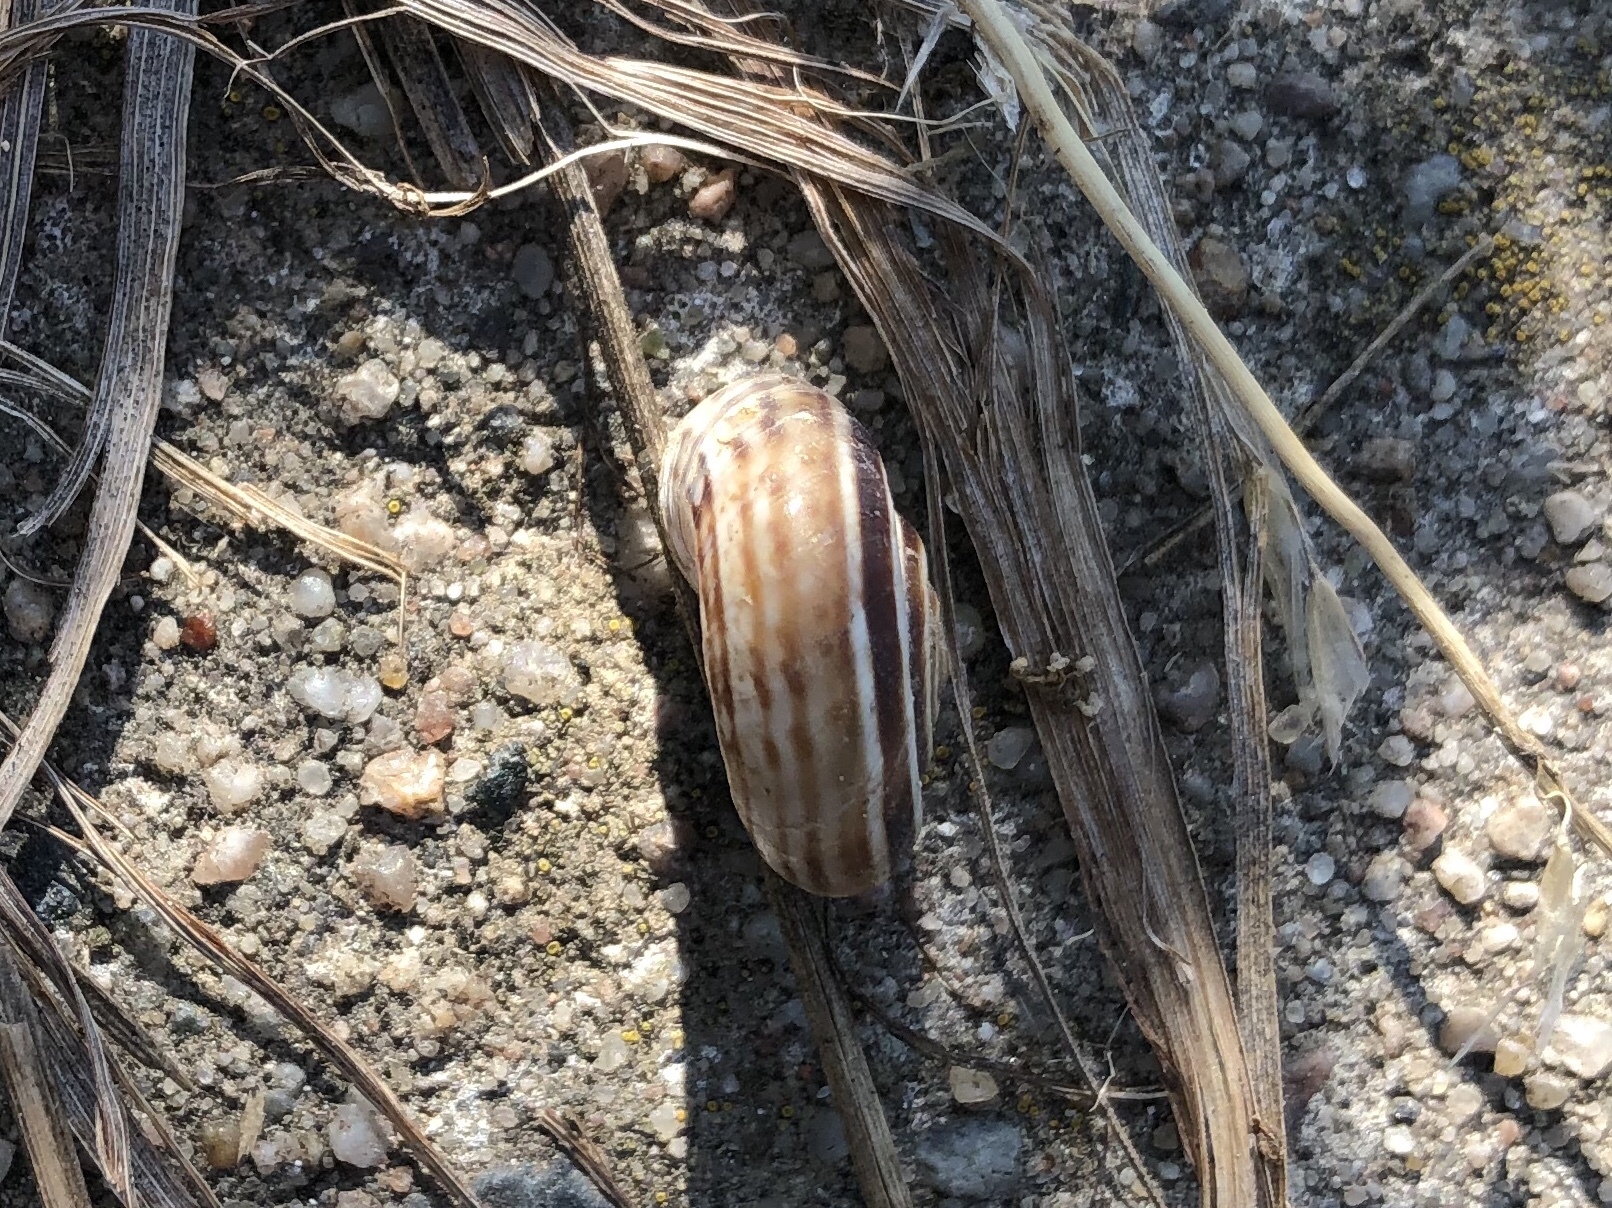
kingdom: Animalia
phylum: Mollusca
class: Gastropoda
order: Stylommatophora
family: Geomitridae
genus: Xerolenta
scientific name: Xerolenta obvia
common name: White heath snail
